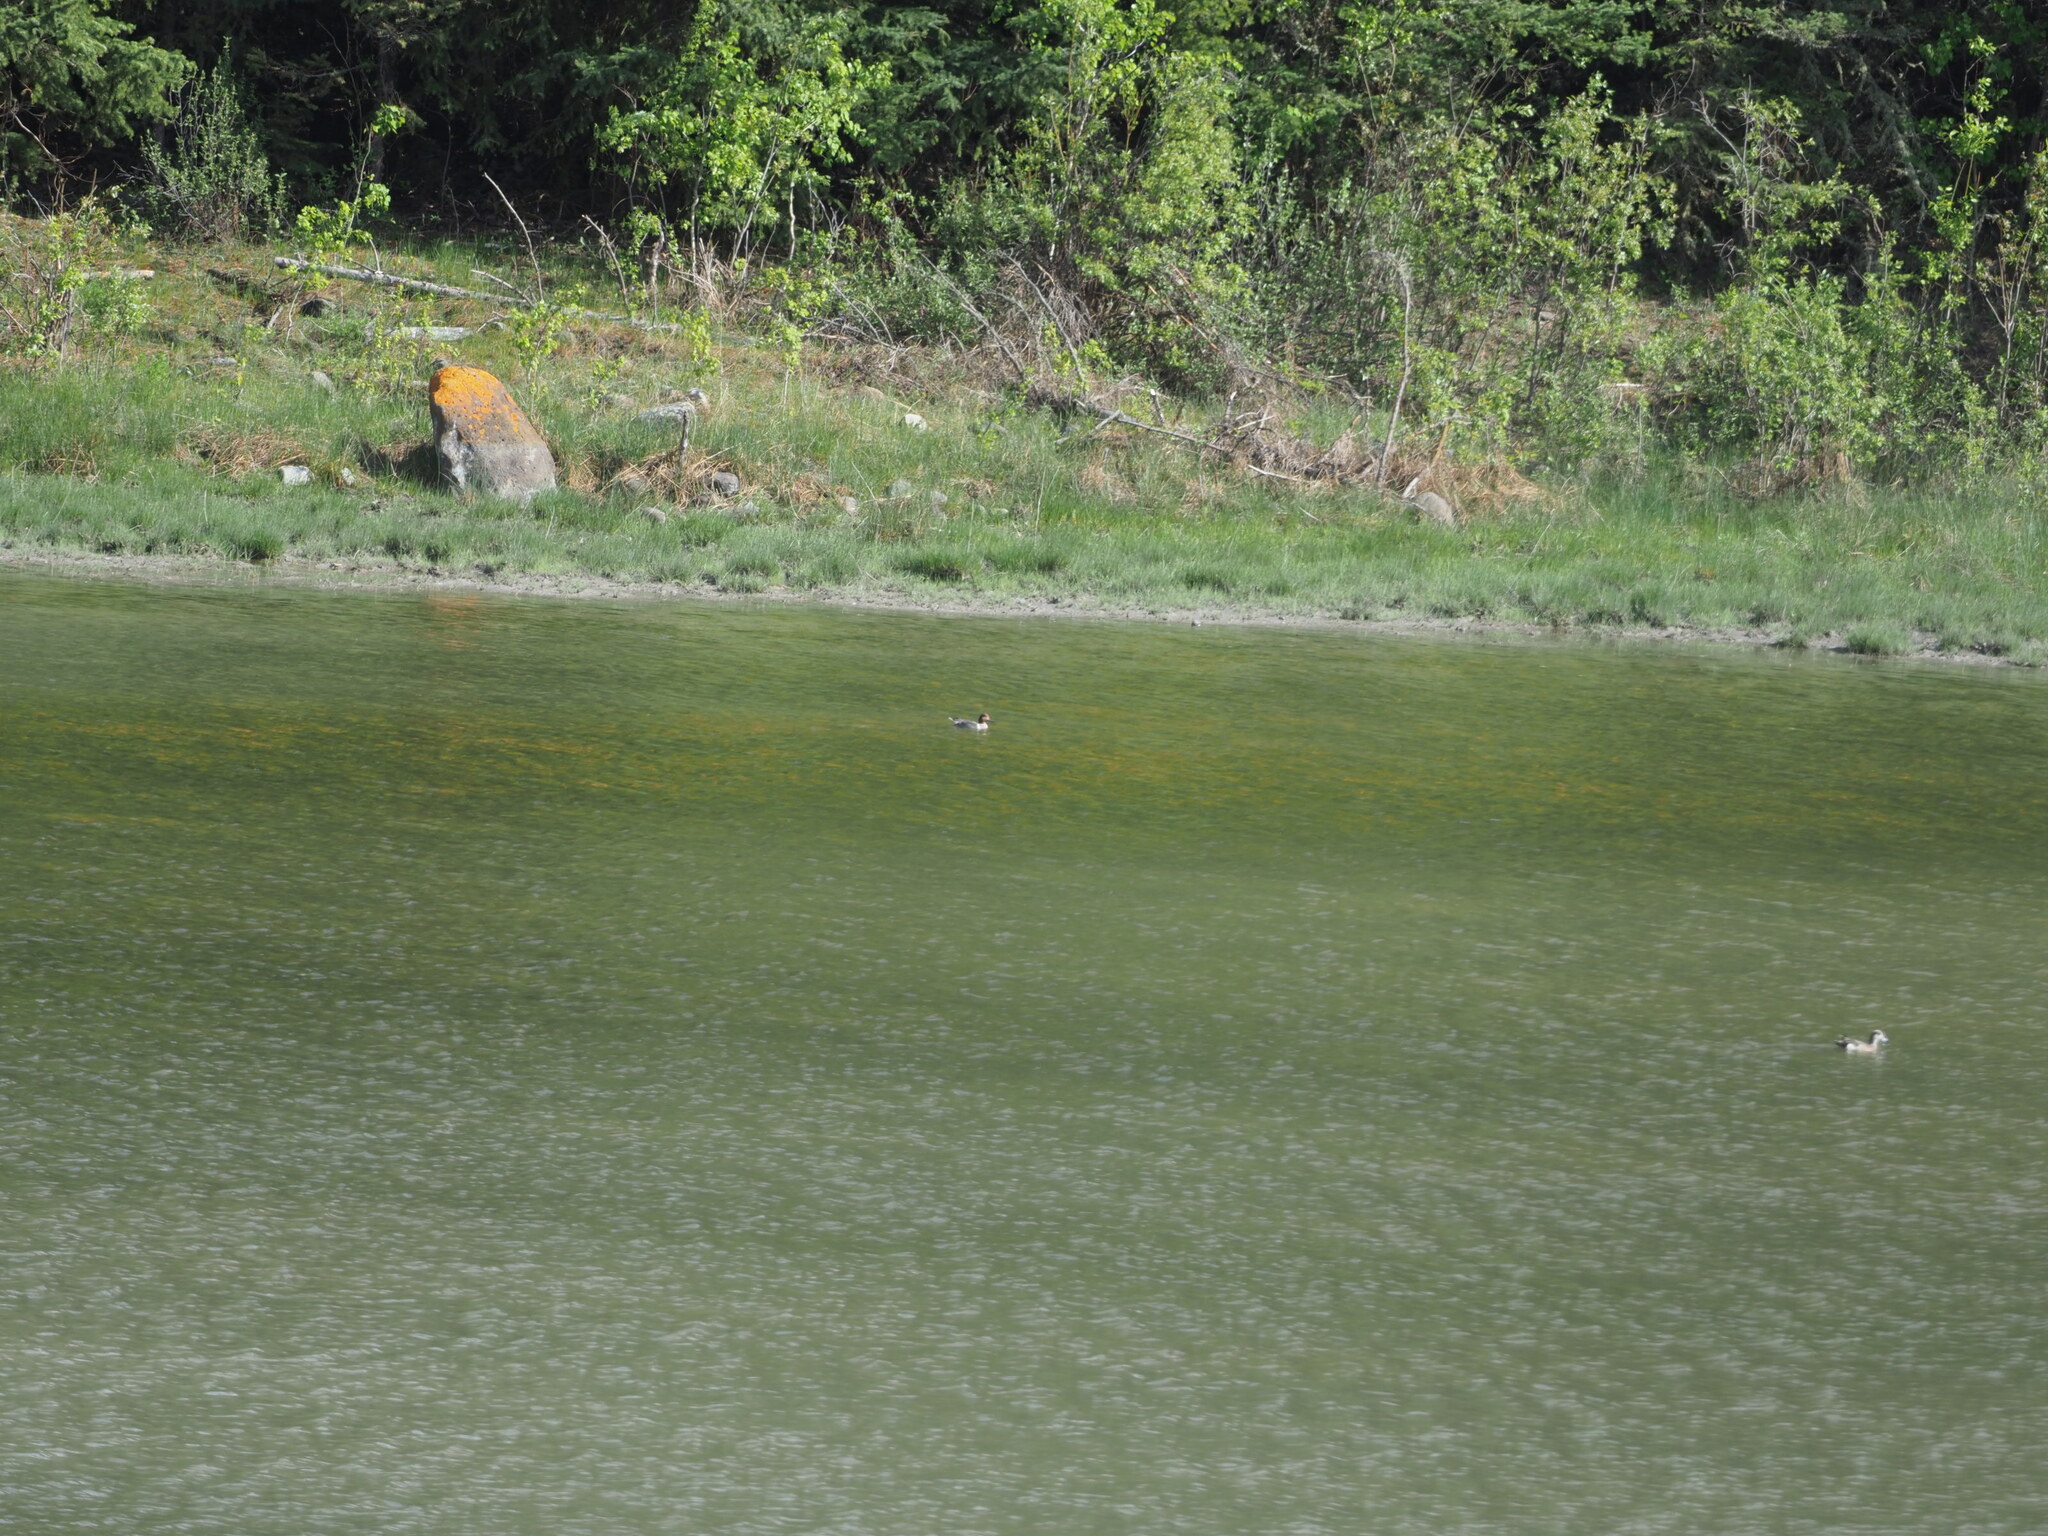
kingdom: Animalia
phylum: Chordata
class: Aves
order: Anseriformes
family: Anatidae
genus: Anas
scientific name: Anas crecca
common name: Eurasian teal
